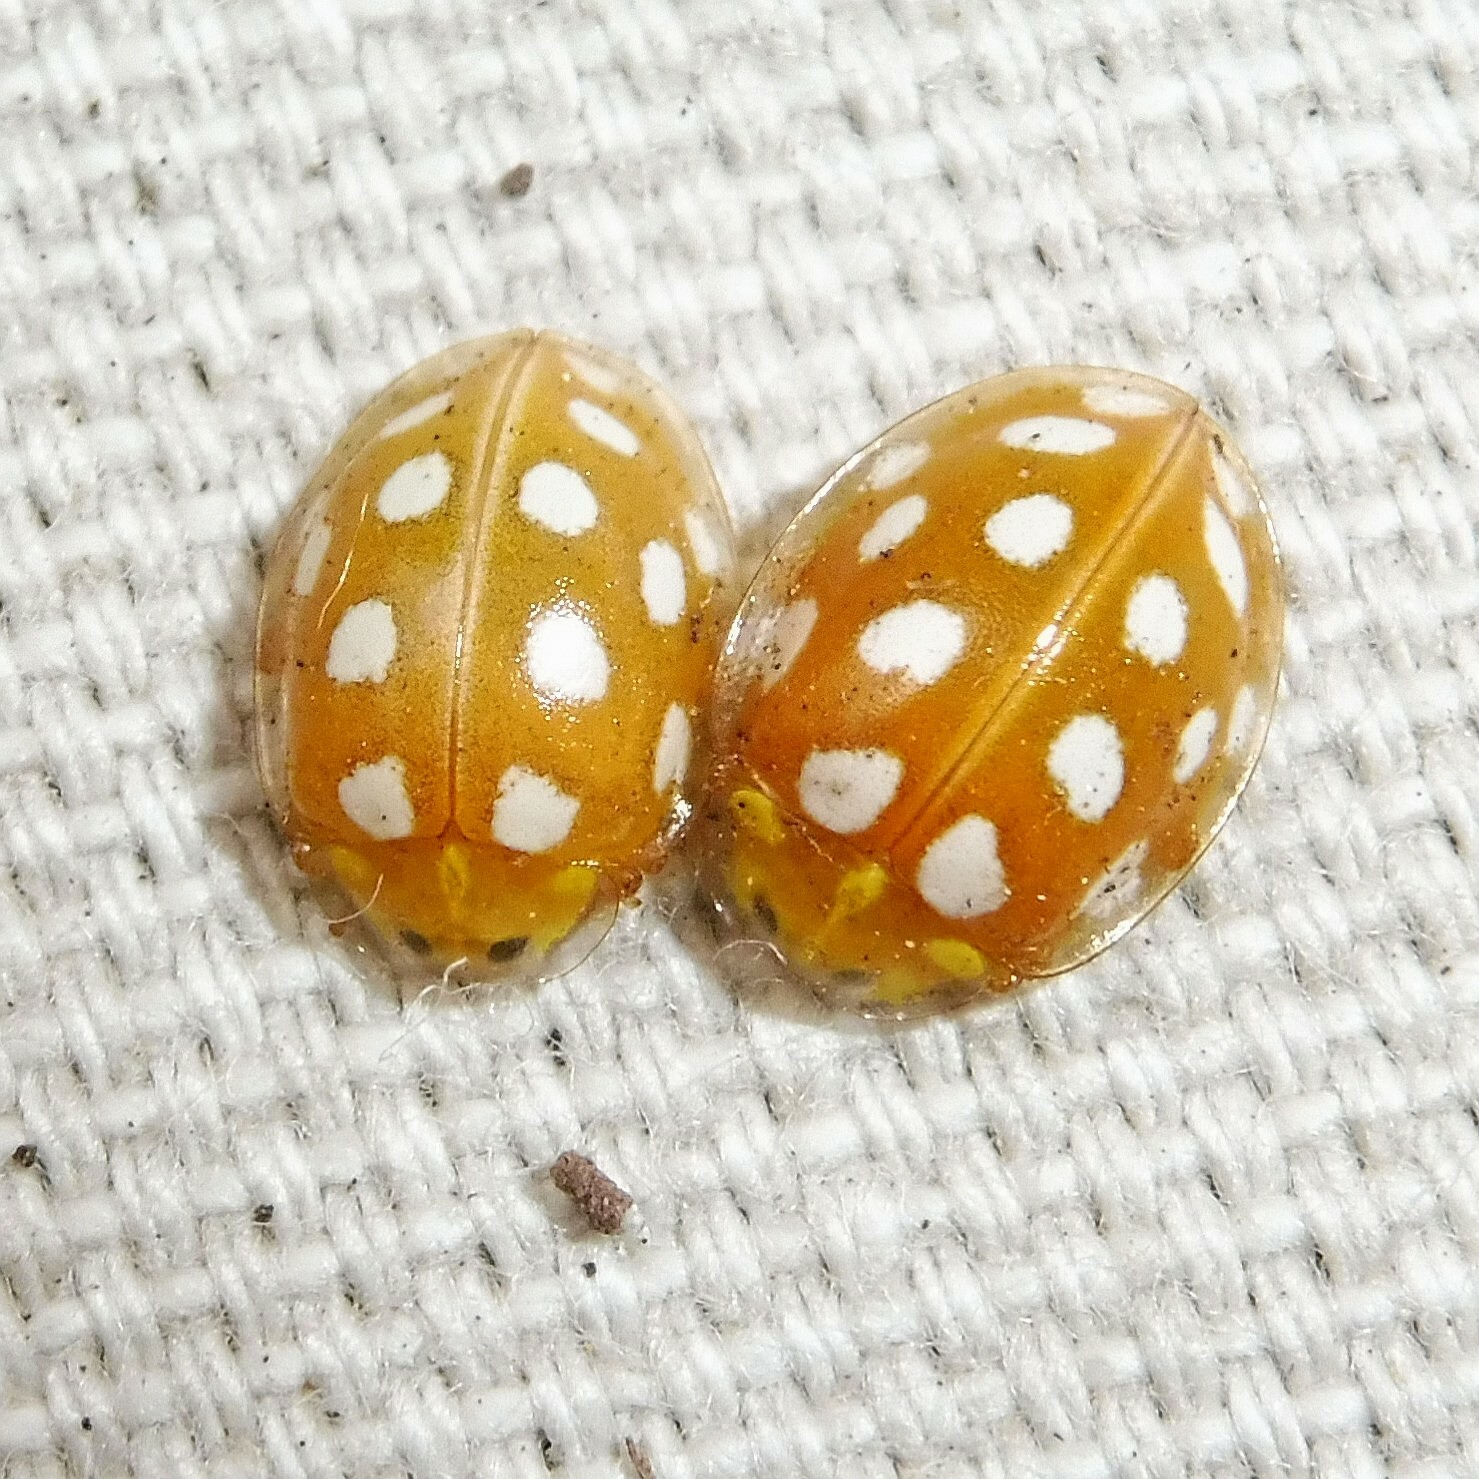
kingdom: Animalia
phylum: Arthropoda
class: Insecta
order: Coleoptera
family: Coccinellidae
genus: Halyzia
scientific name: Halyzia sedecimguttata
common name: Orange ladybird
